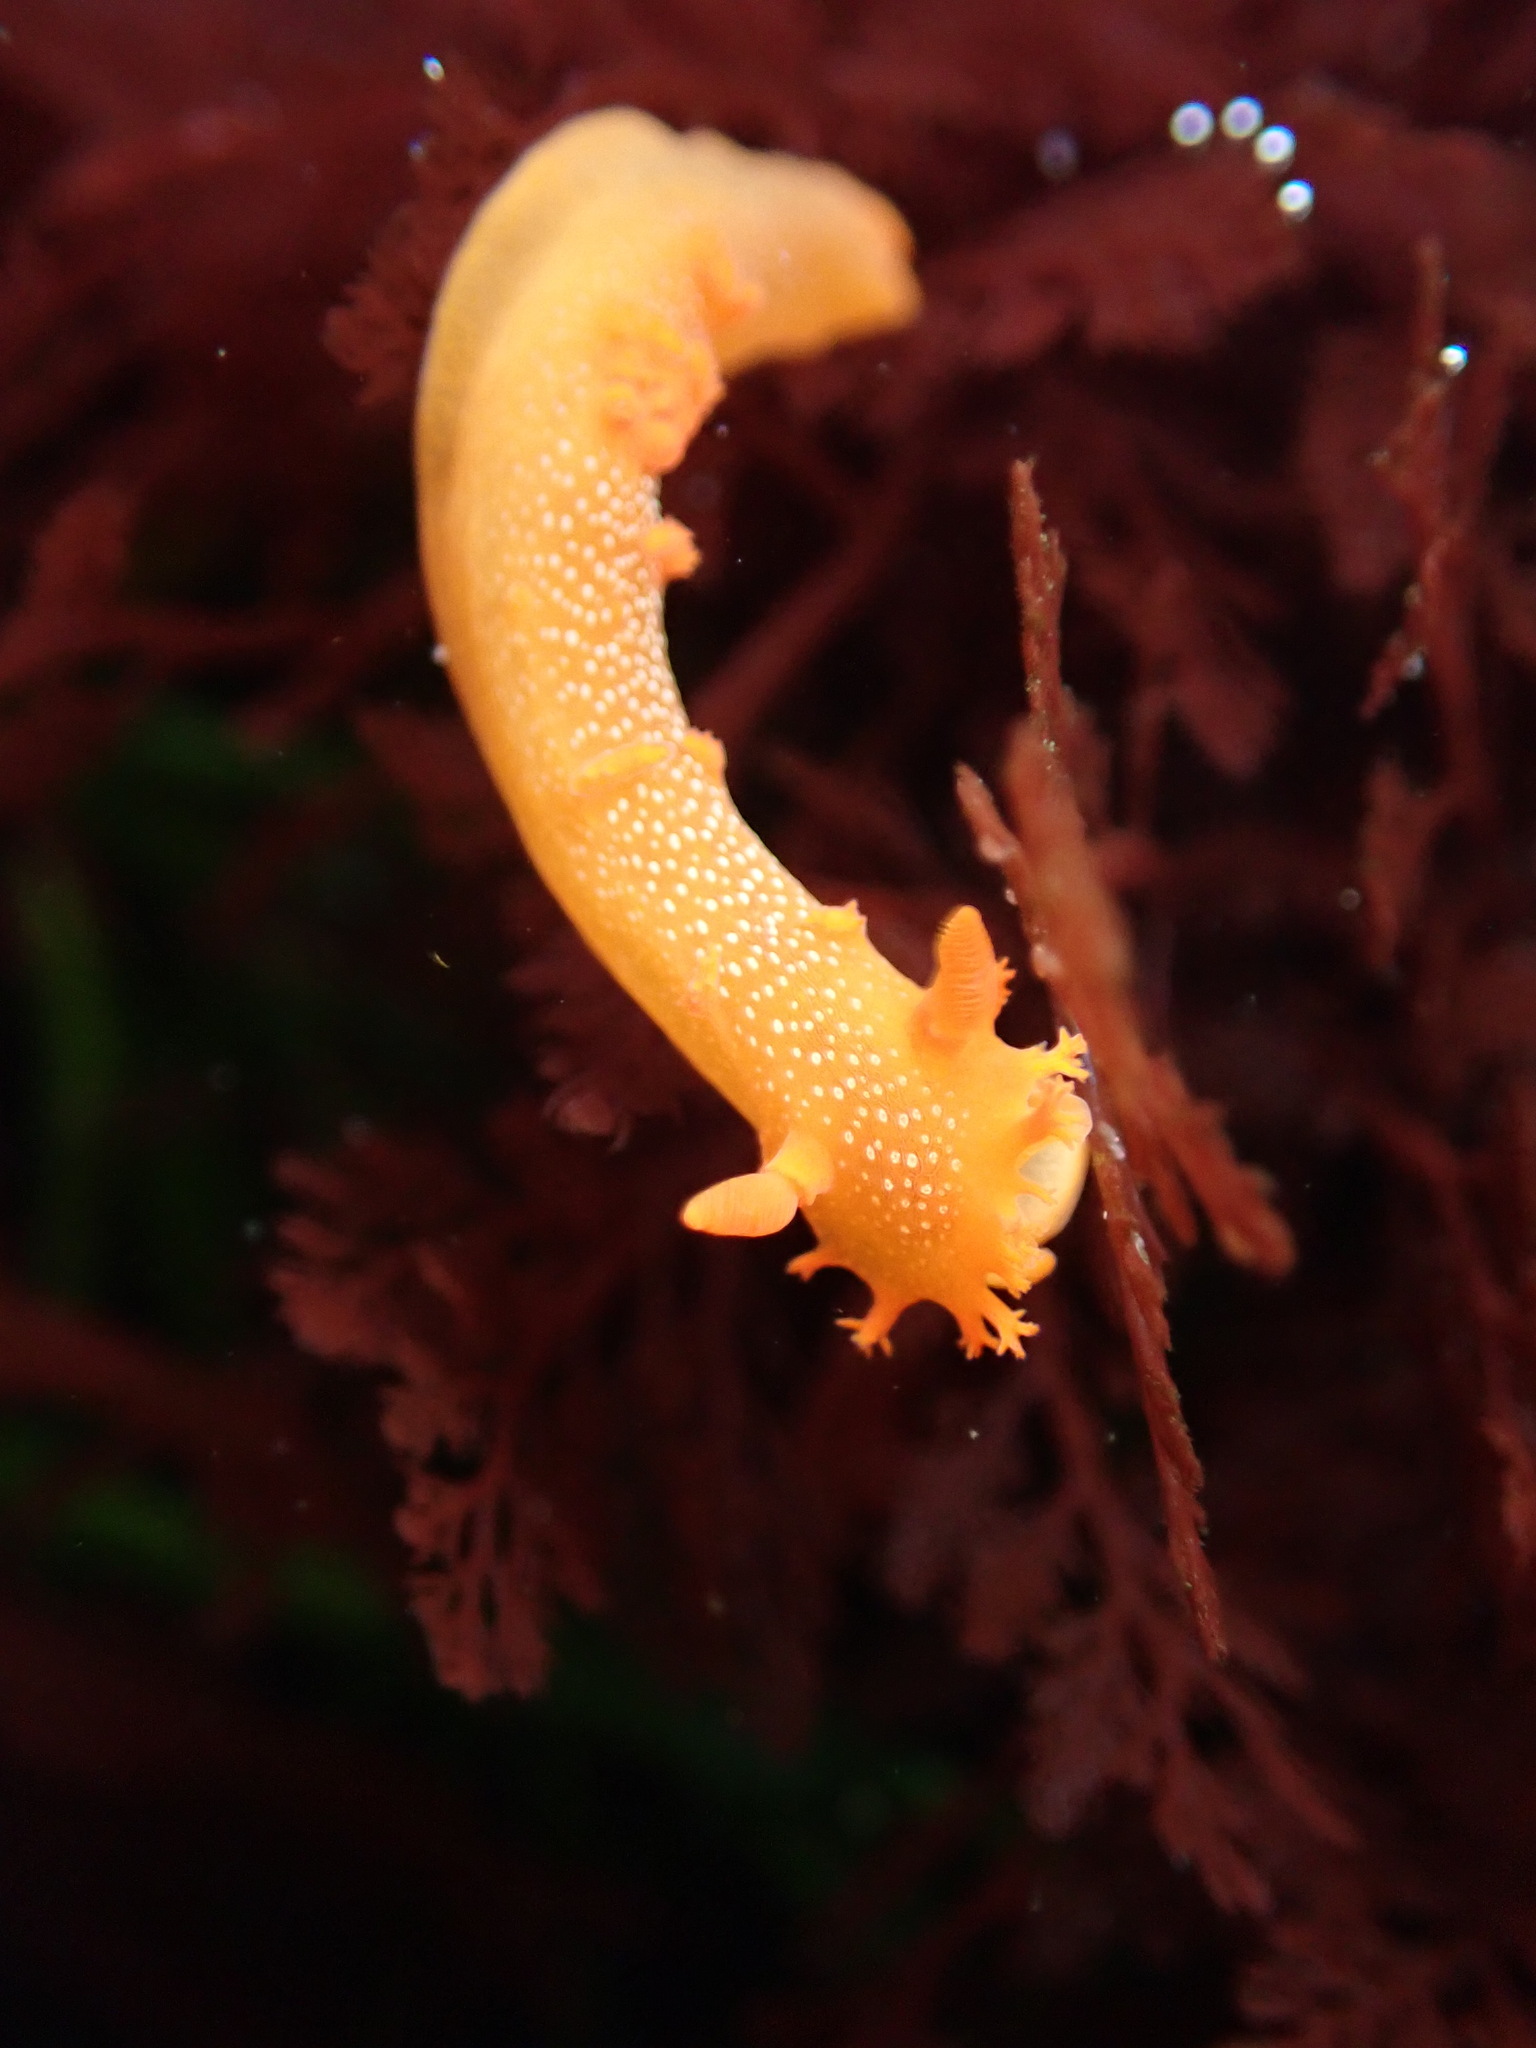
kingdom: Animalia
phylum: Mollusca
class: Gastropoda
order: Nudibranchia
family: Polyceridae
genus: Triopha
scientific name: Triopha maculata
